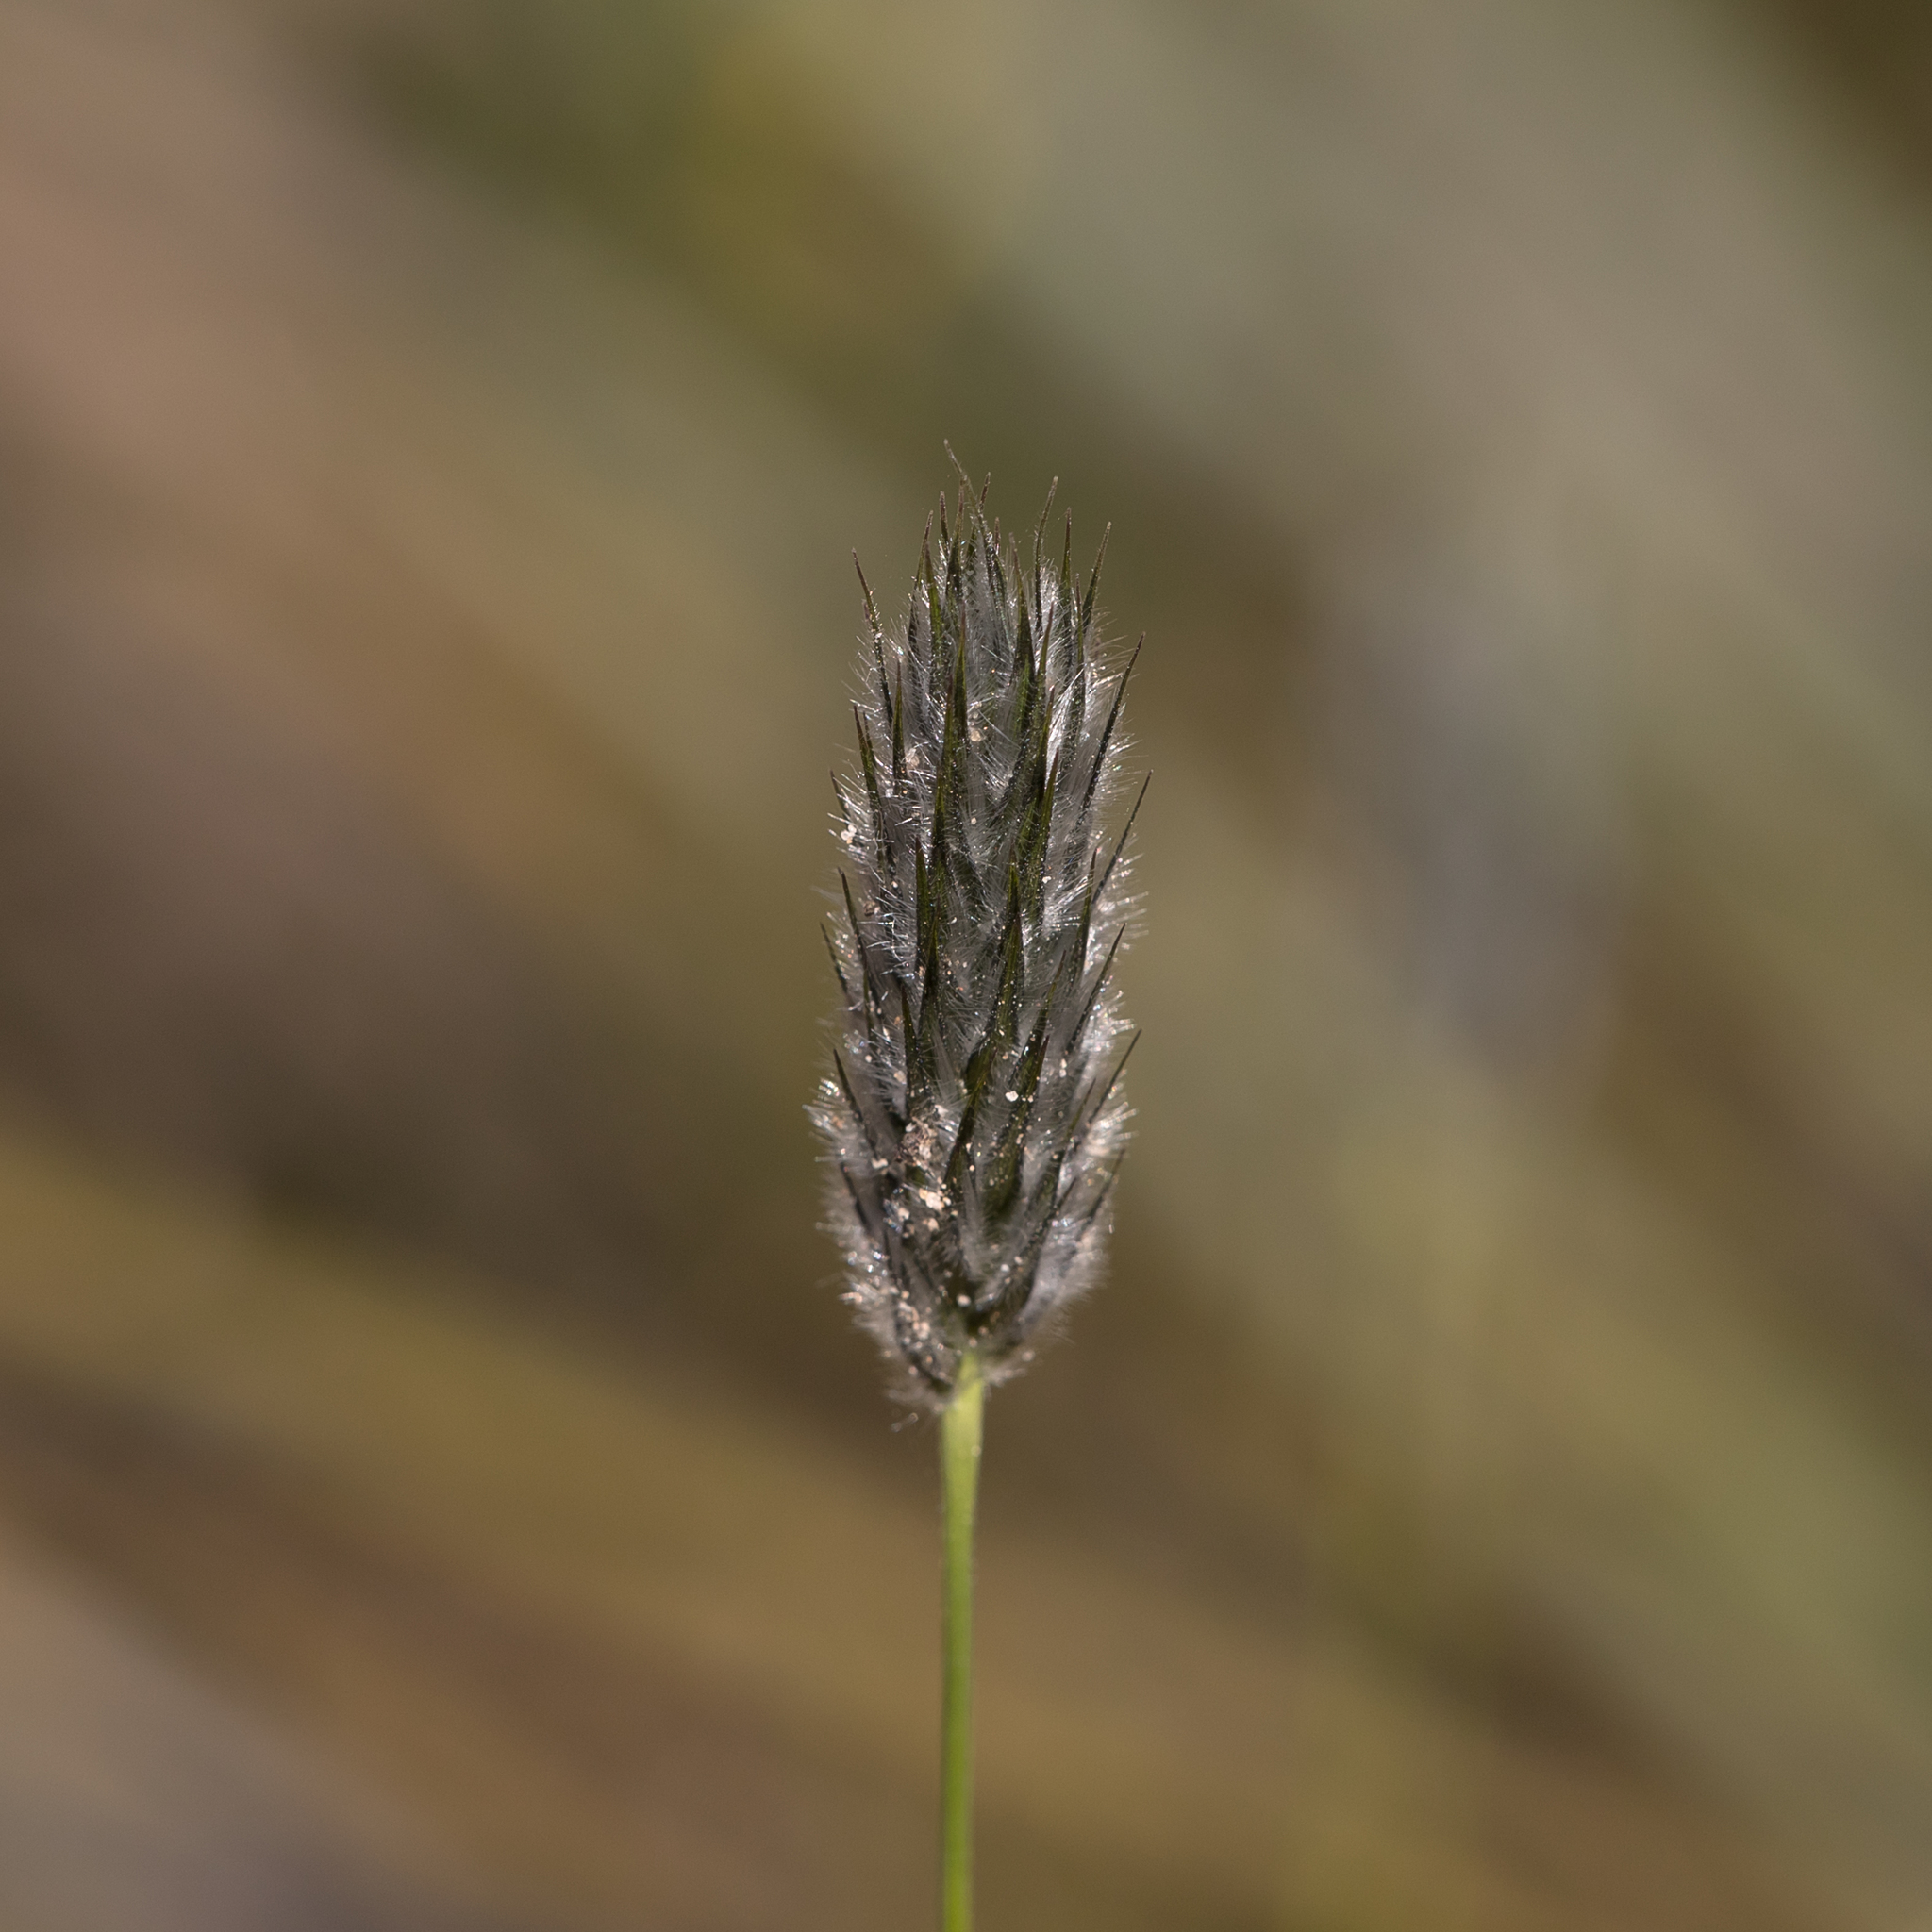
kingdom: Plantae
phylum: Tracheophyta
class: Liliopsida
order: Poales
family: Poaceae
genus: Neurachne
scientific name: Neurachne alopecuroidea
